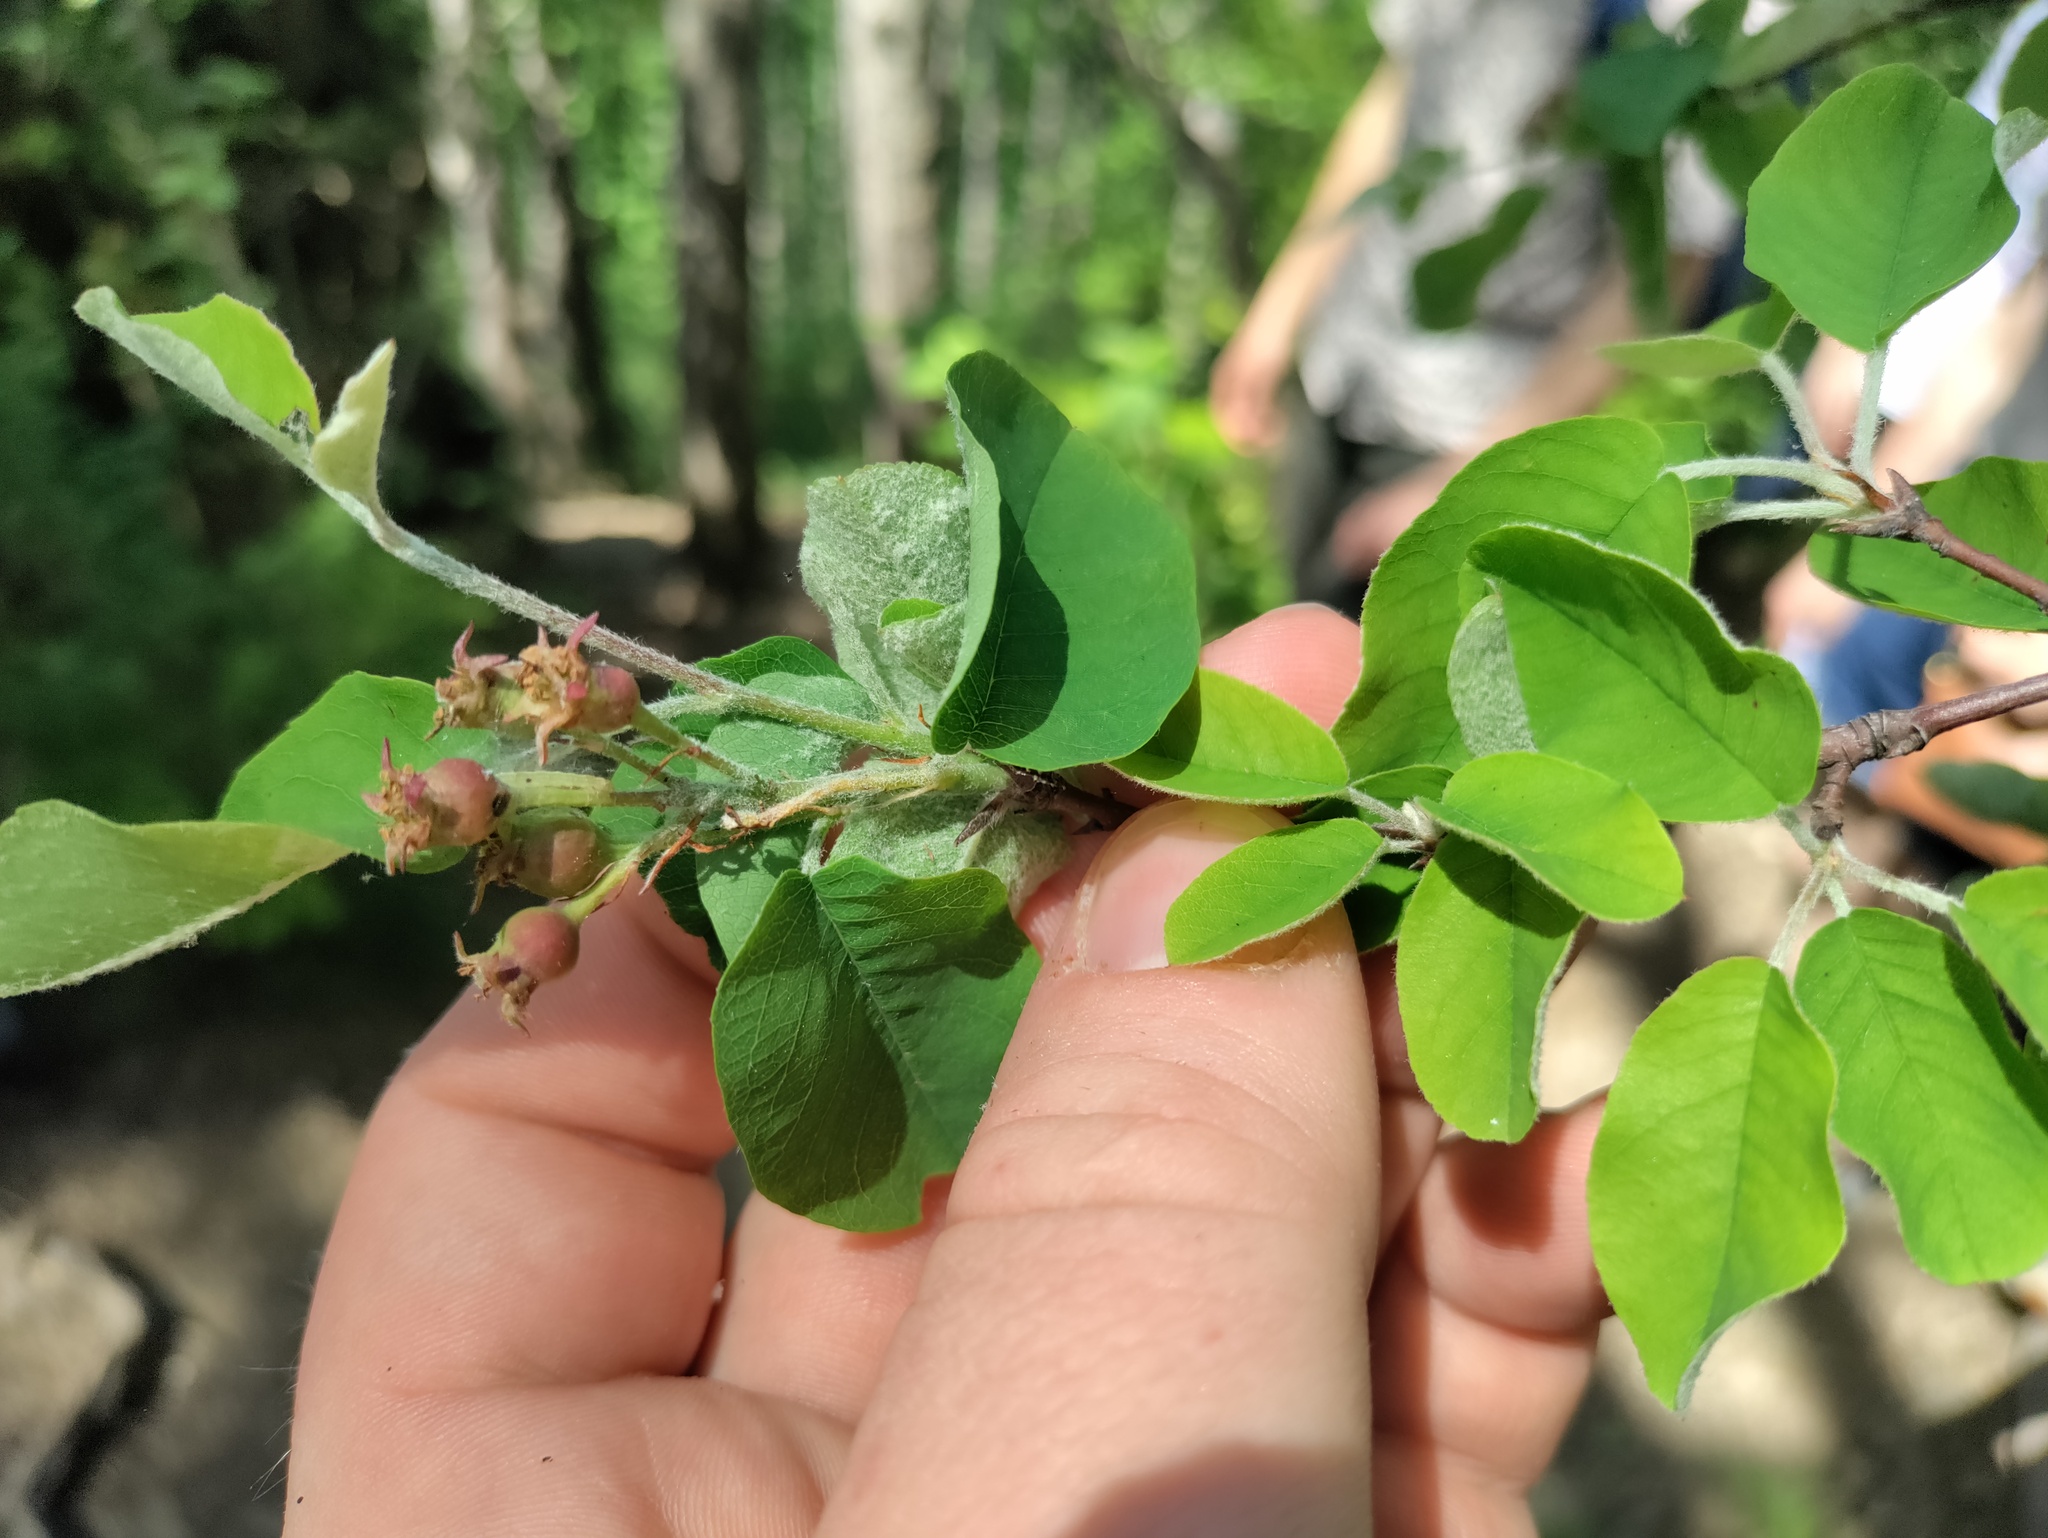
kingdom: Plantae
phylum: Tracheophyta
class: Magnoliopsida
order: Rosales
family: Rosaceae
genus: Amelanchier
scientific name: Amelanchier ovalis
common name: Serviceberry
